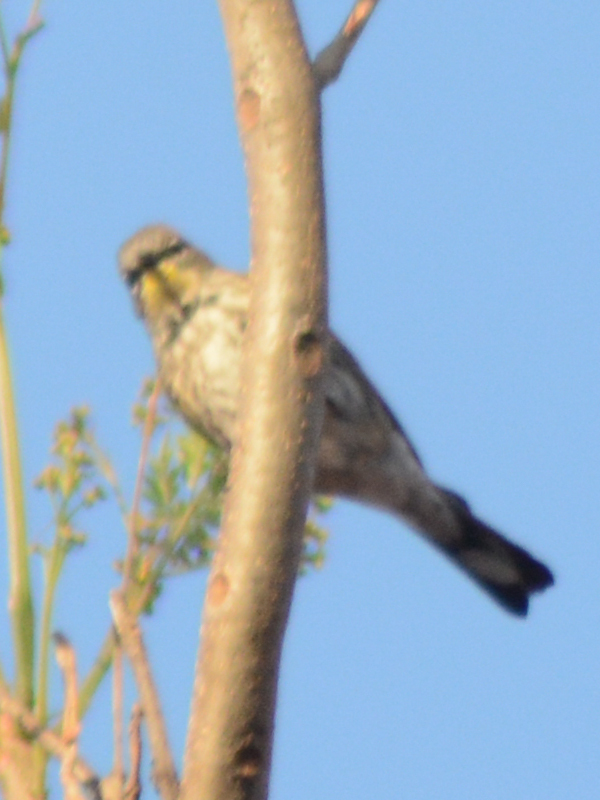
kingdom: Animalia
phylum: Chordata
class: Aves
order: Passeriformes
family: Parulidae
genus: Setophaga
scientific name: Setophaga coronata
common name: Myrtle warbler
